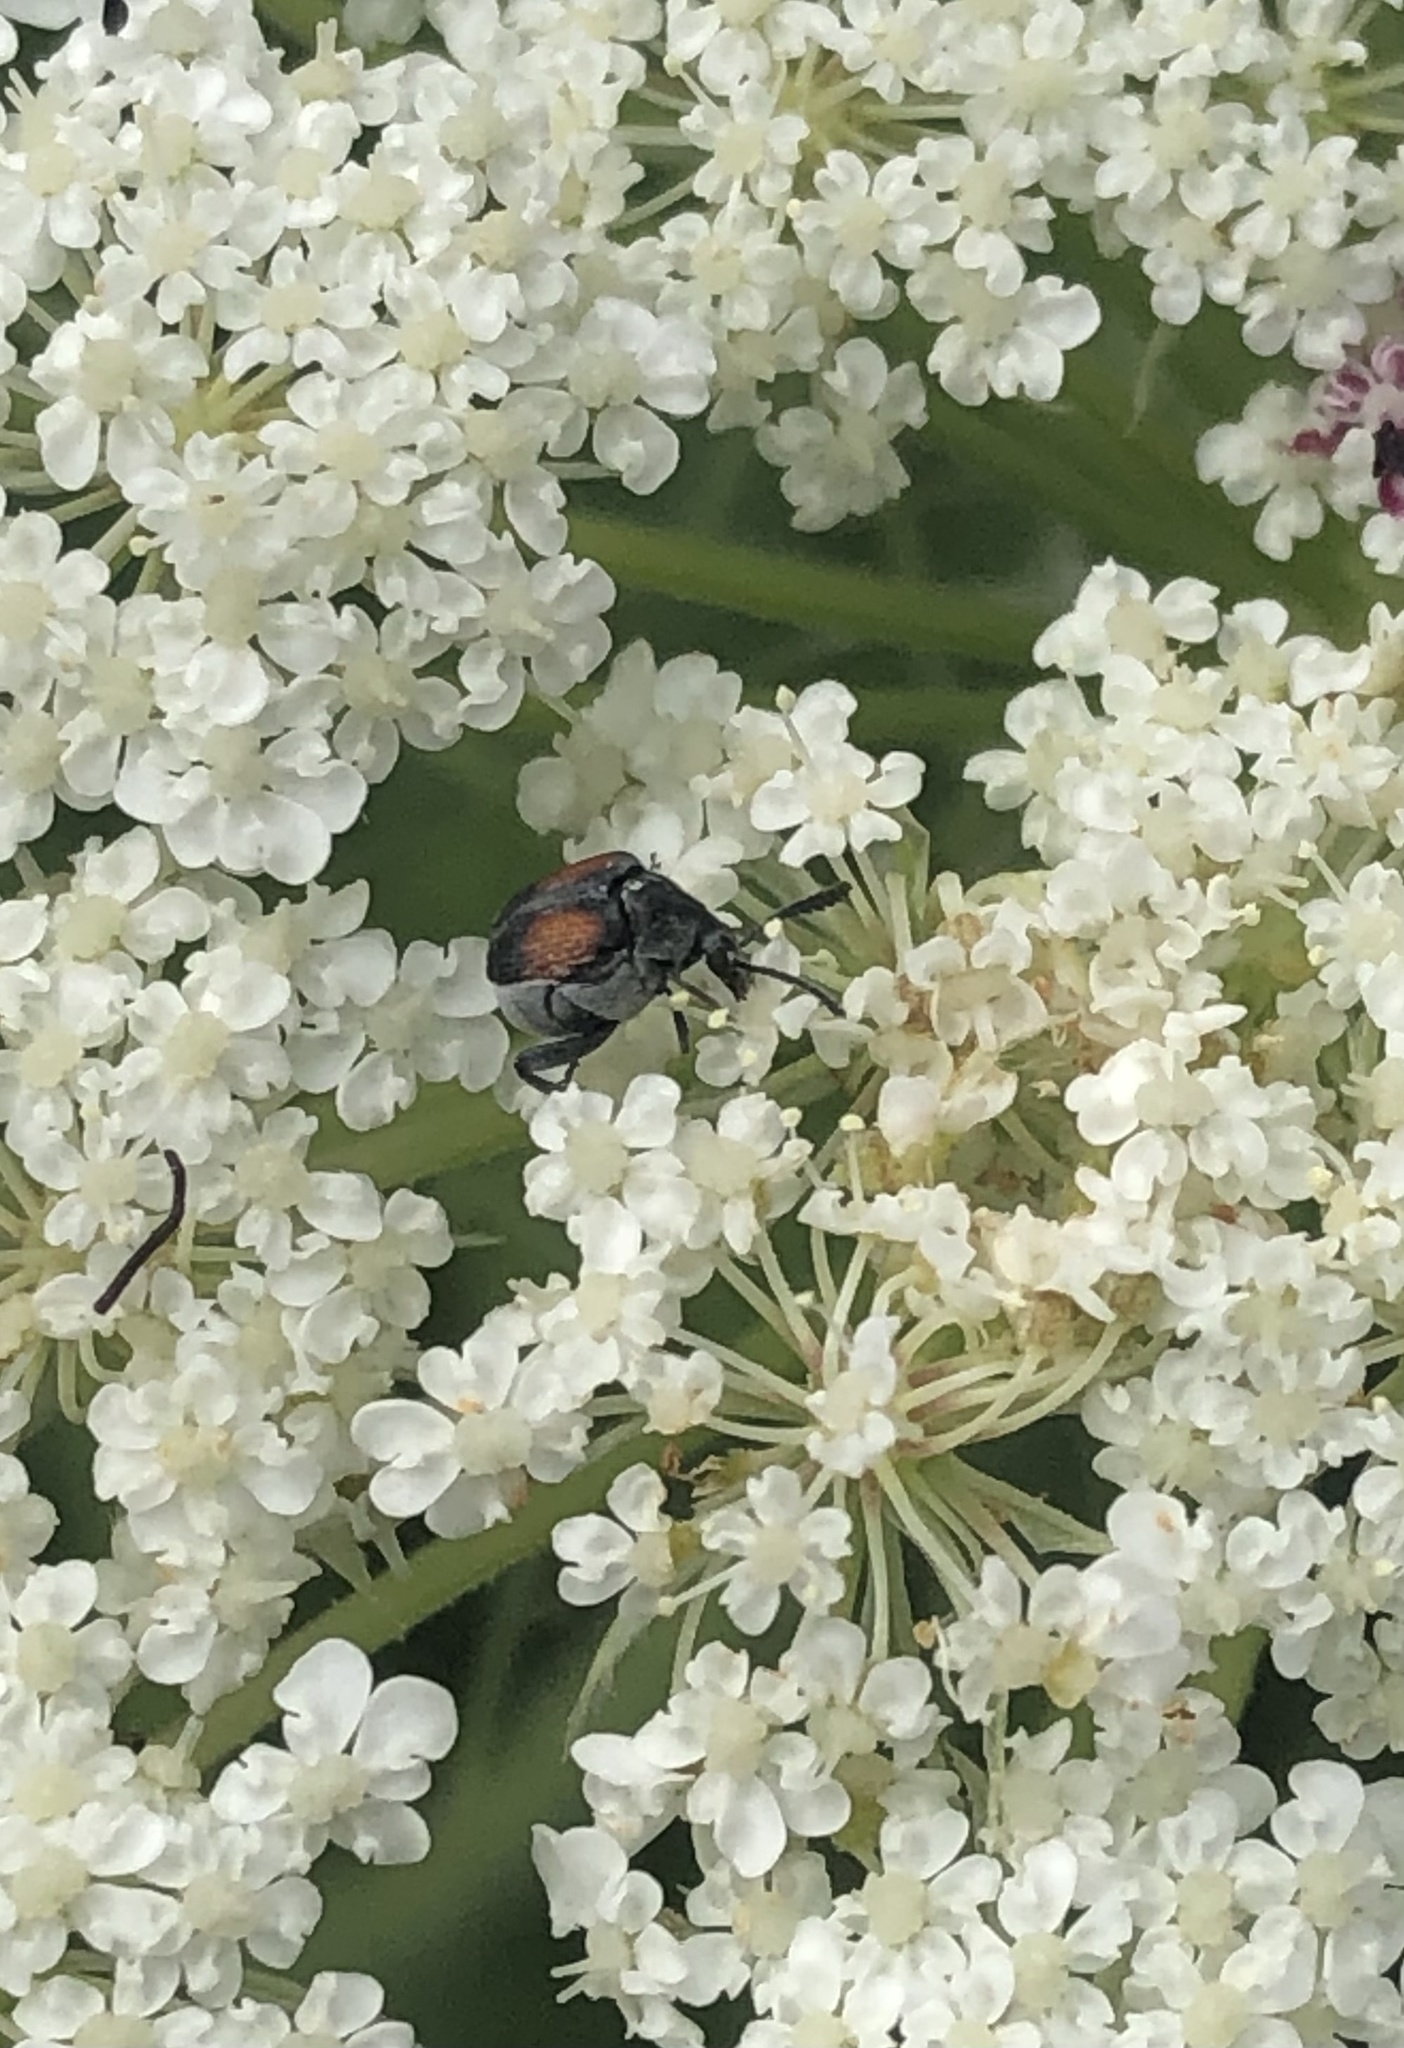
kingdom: Animalia
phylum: Arthropoda
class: Insecta
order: Coleoptera
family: Chrysomelidae
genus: Megacerus
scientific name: Megacerus discoidus
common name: Red megacerus
